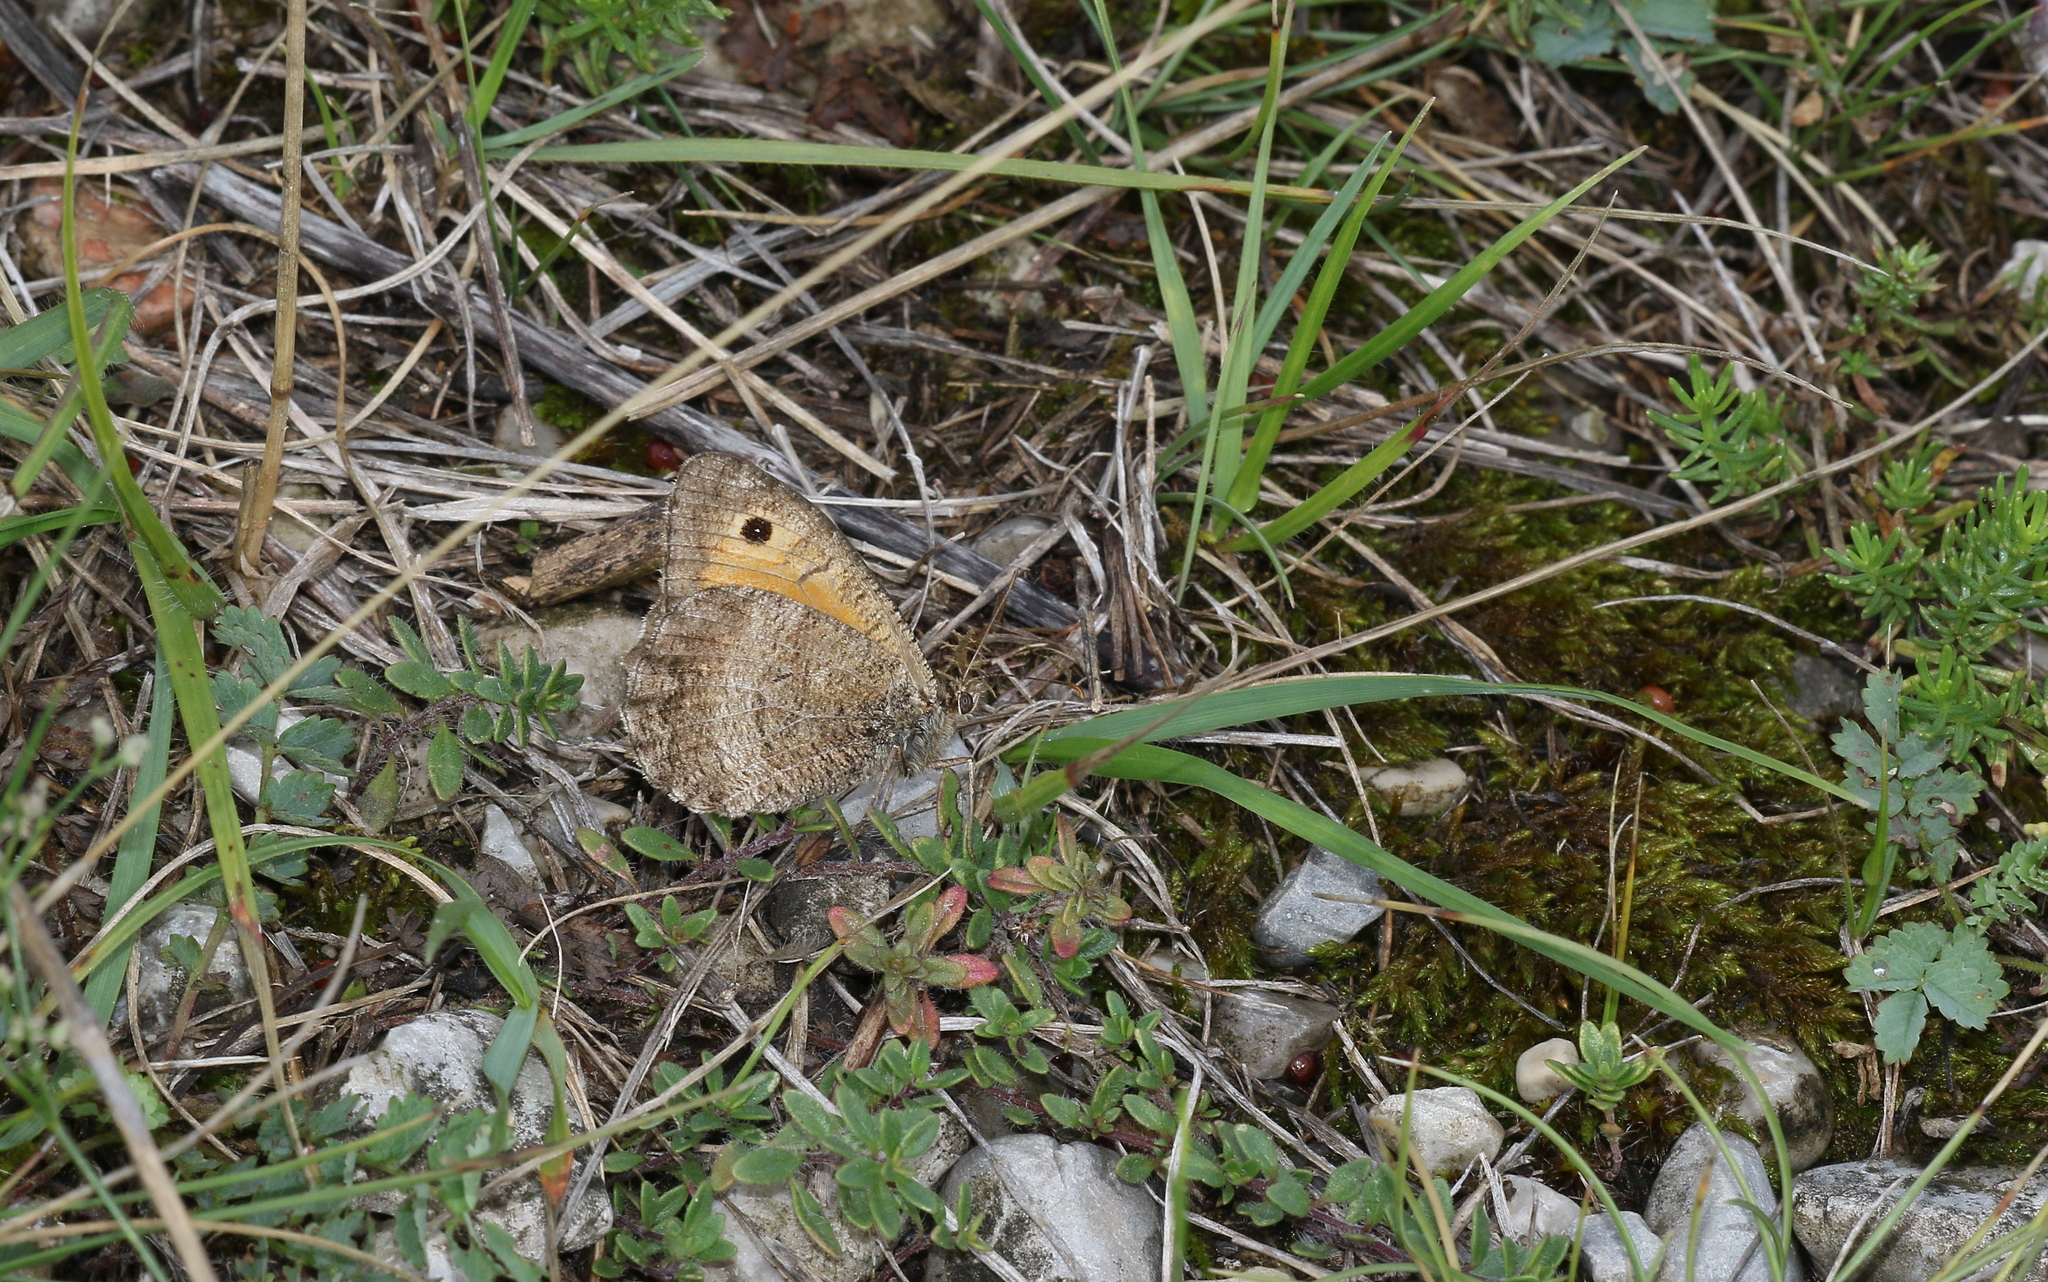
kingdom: Animalia
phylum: Arthropoda
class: Insecta
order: Lepidoptera
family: Nymphalidae
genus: Arethusana
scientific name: Arethusana arethusa
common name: False grayling
